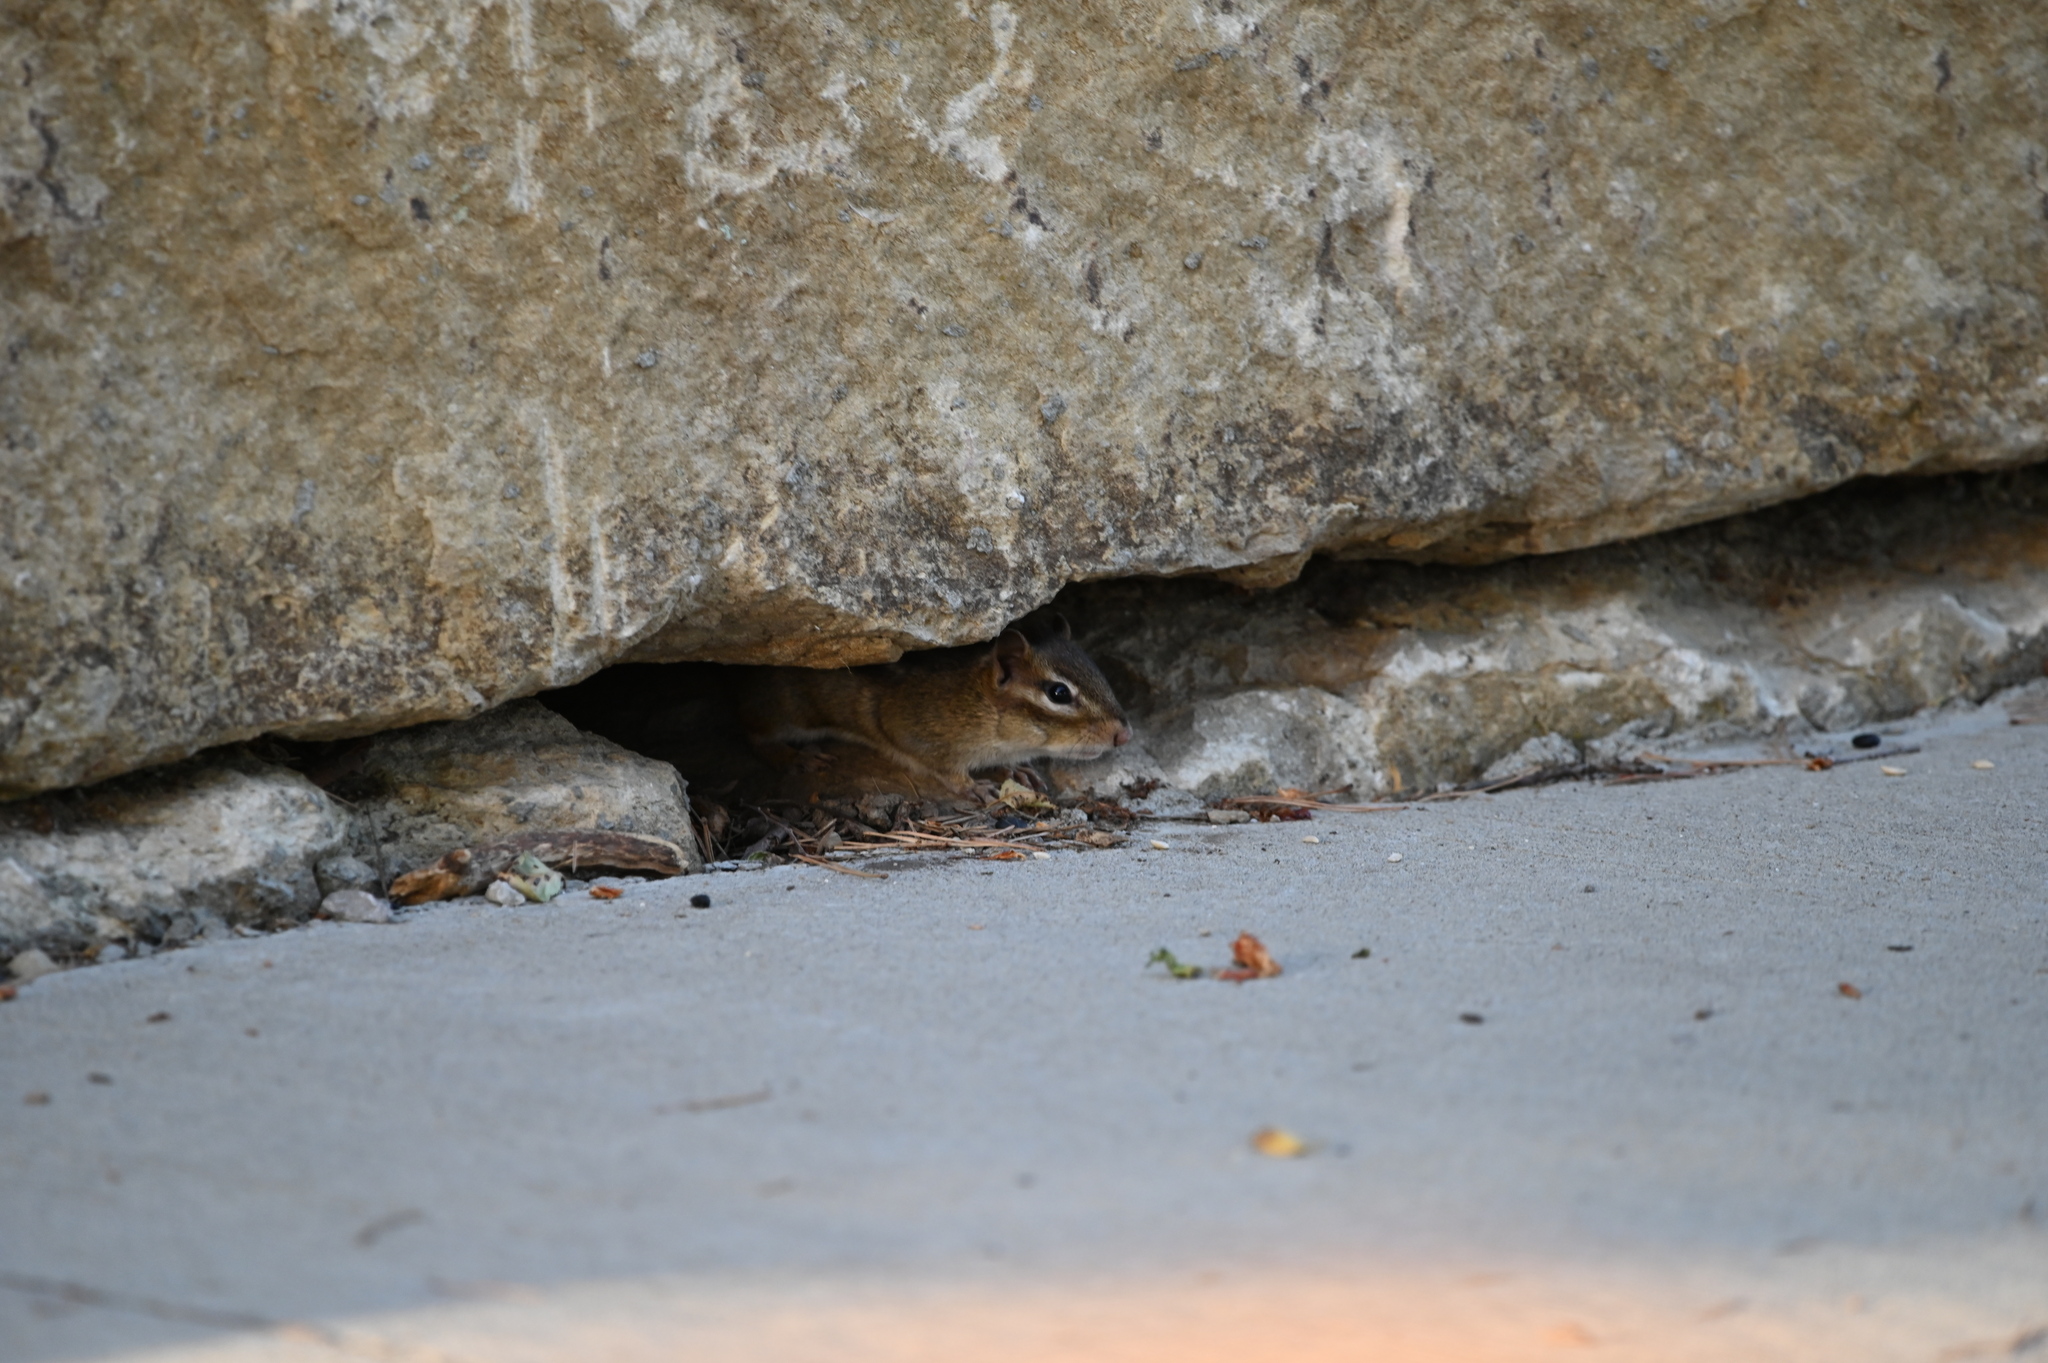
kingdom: Animalia
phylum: Chordata
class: Mammalia
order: Rodentia
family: Sciuridae
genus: Tamias
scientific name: Tamias striatus
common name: Eastern chipmunk
